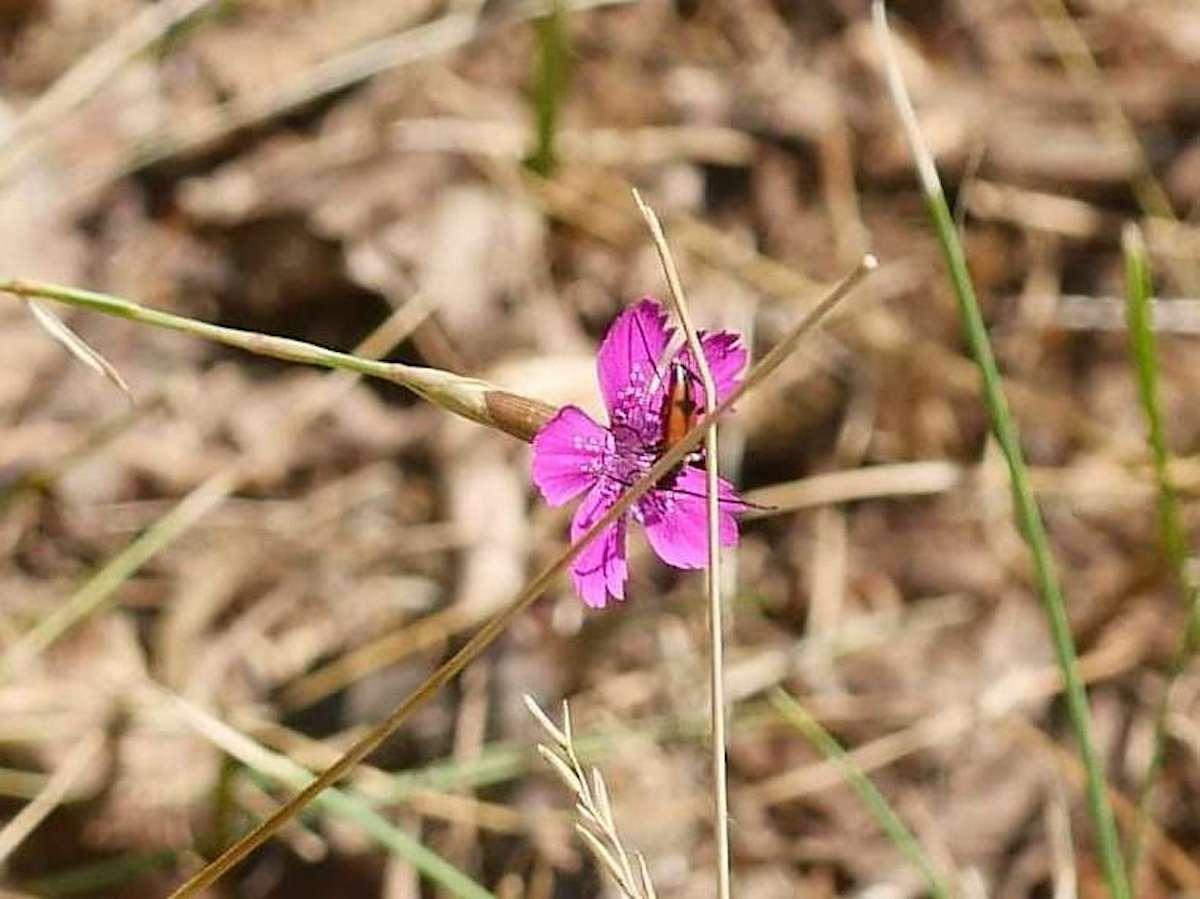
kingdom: Animalia
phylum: Arthropoda
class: Insecta
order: Coleoptera
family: Cerambycidae
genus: Stenurella
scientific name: Stenurella bifasciata
